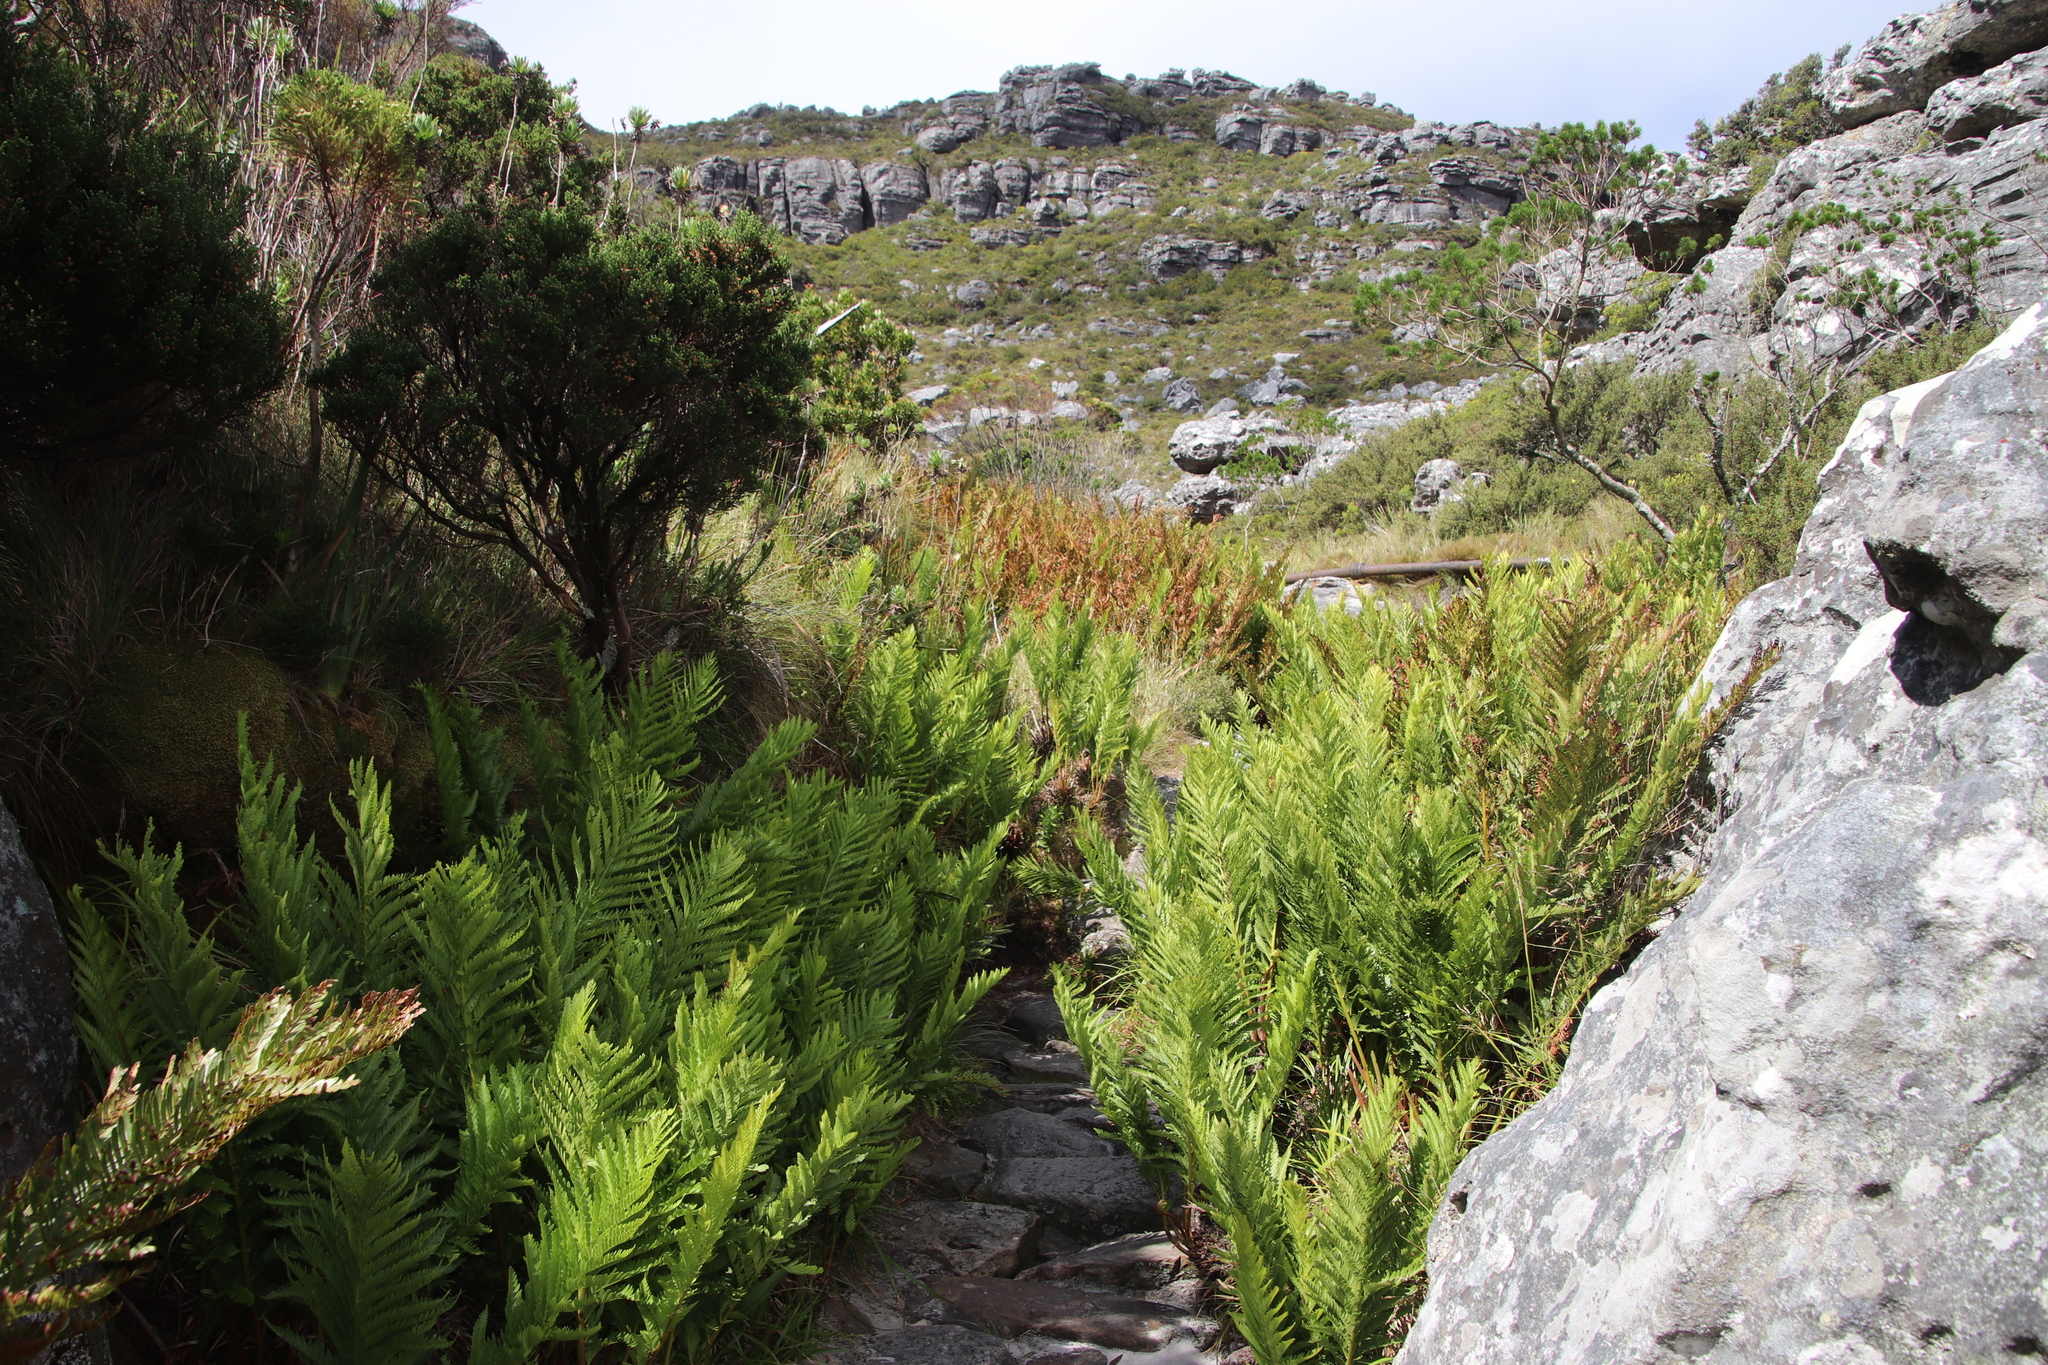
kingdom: Plantae
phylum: Tracheophyta
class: Polypodiopsida
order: Osmundales
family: Osmundaceae
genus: Todea
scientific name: Todea barbara
